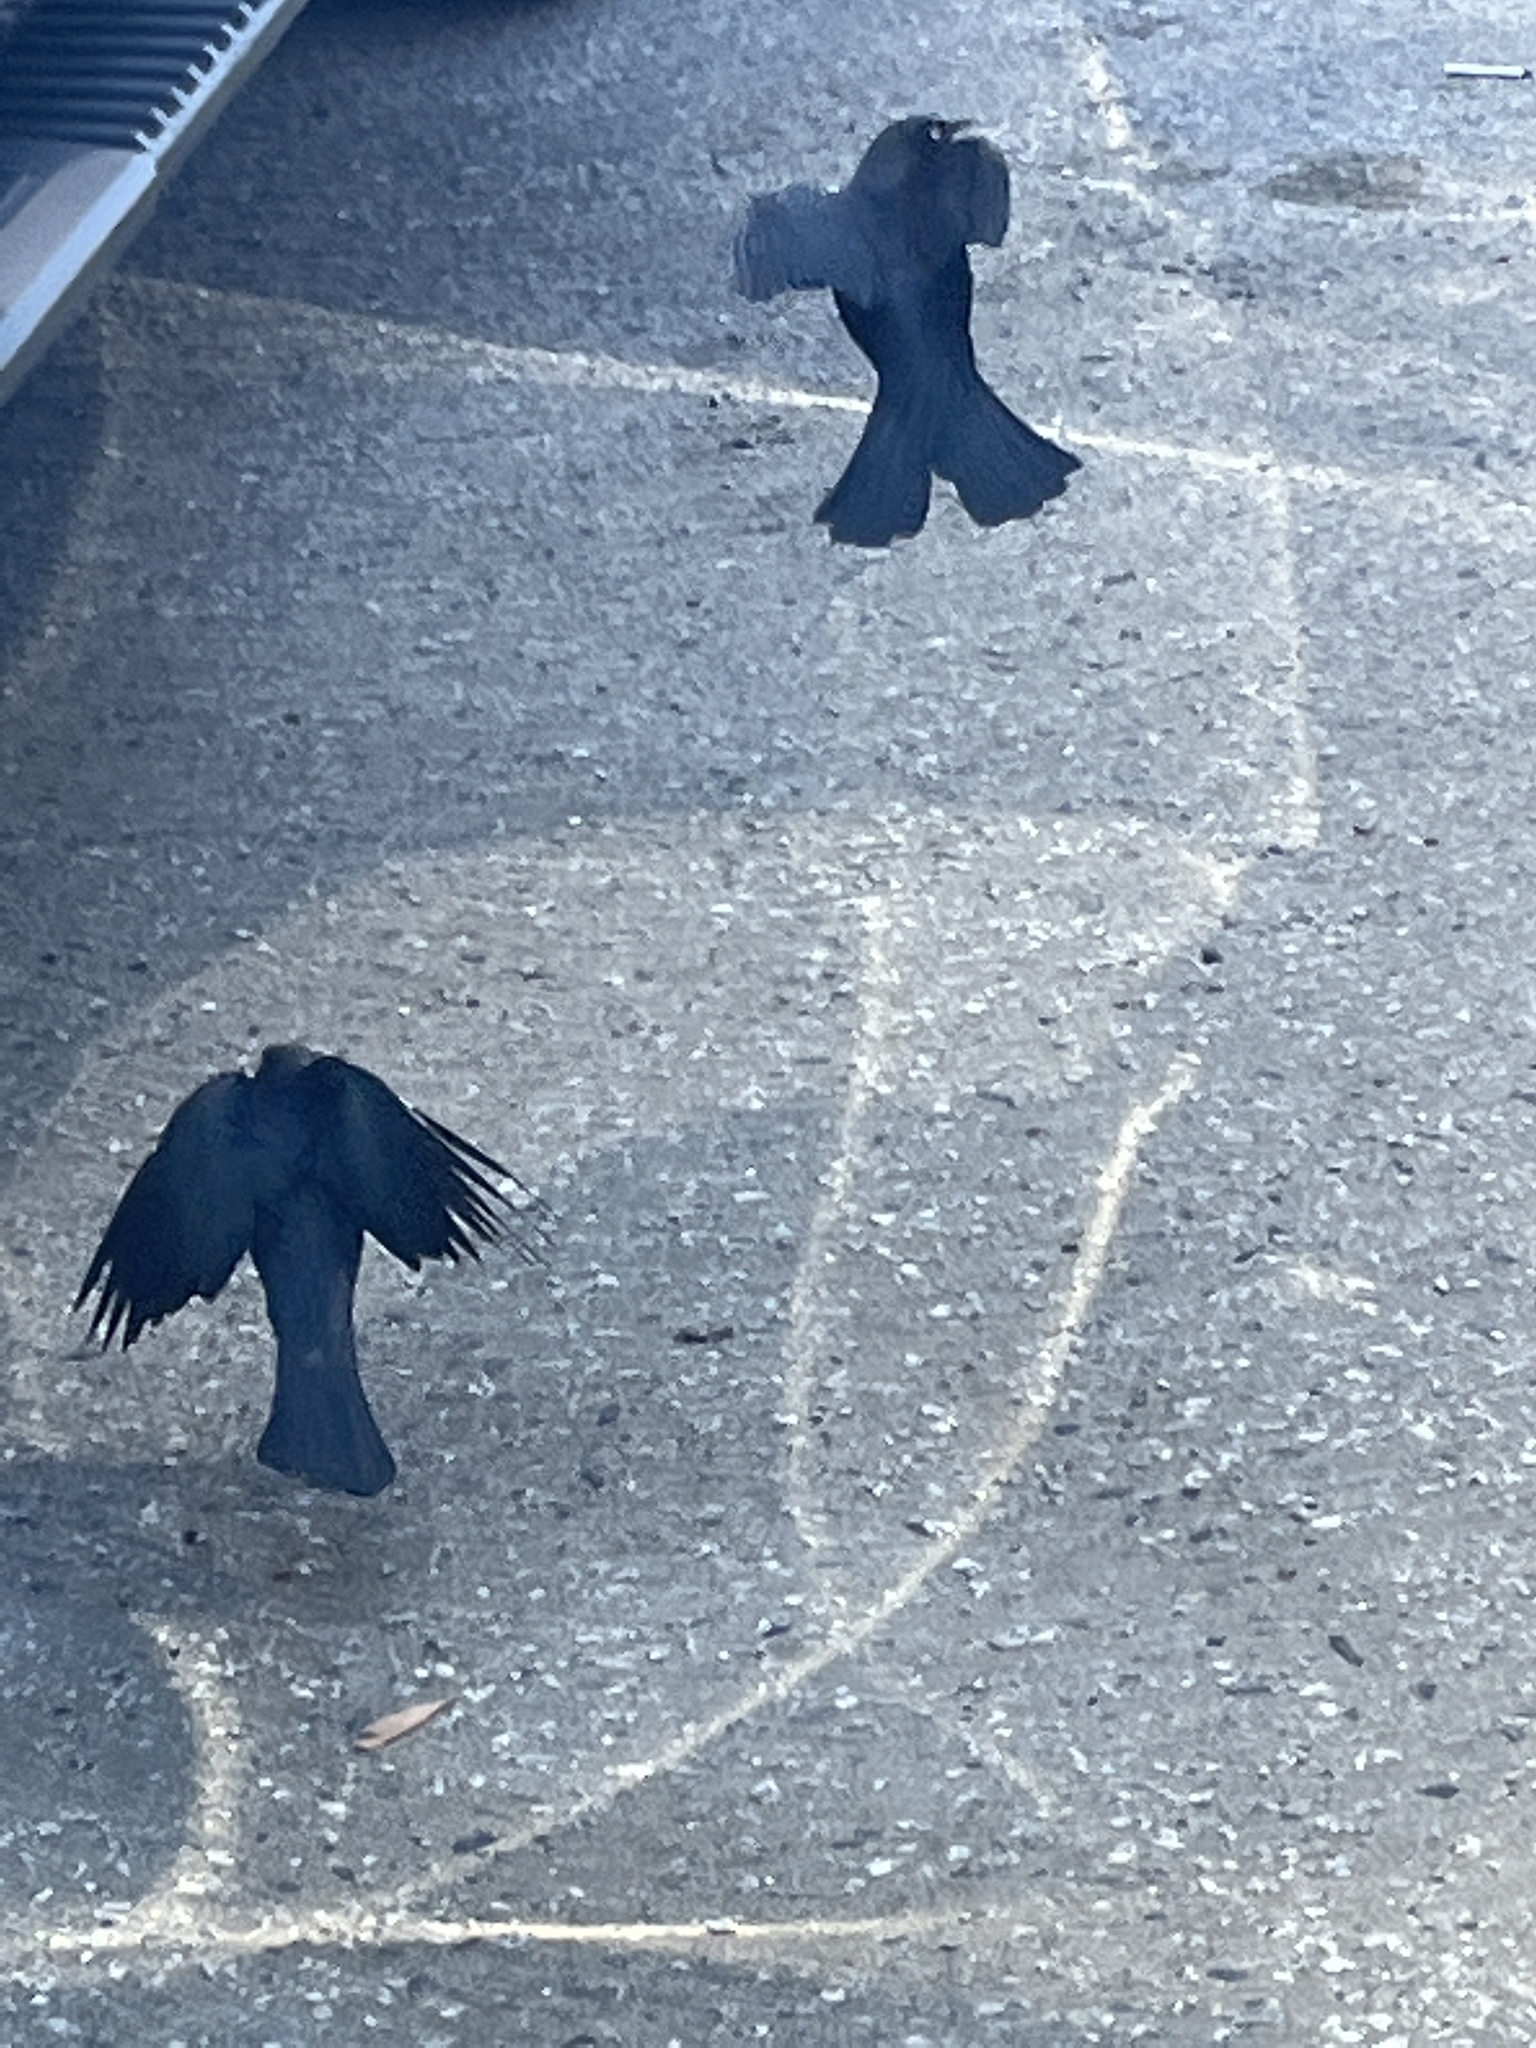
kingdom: Animalia
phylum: Chordata
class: Aves
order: Passeriformes
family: Icteridae
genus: Euphagus
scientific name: Euphagus cyanocephalus
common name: Brewer's blackbird
